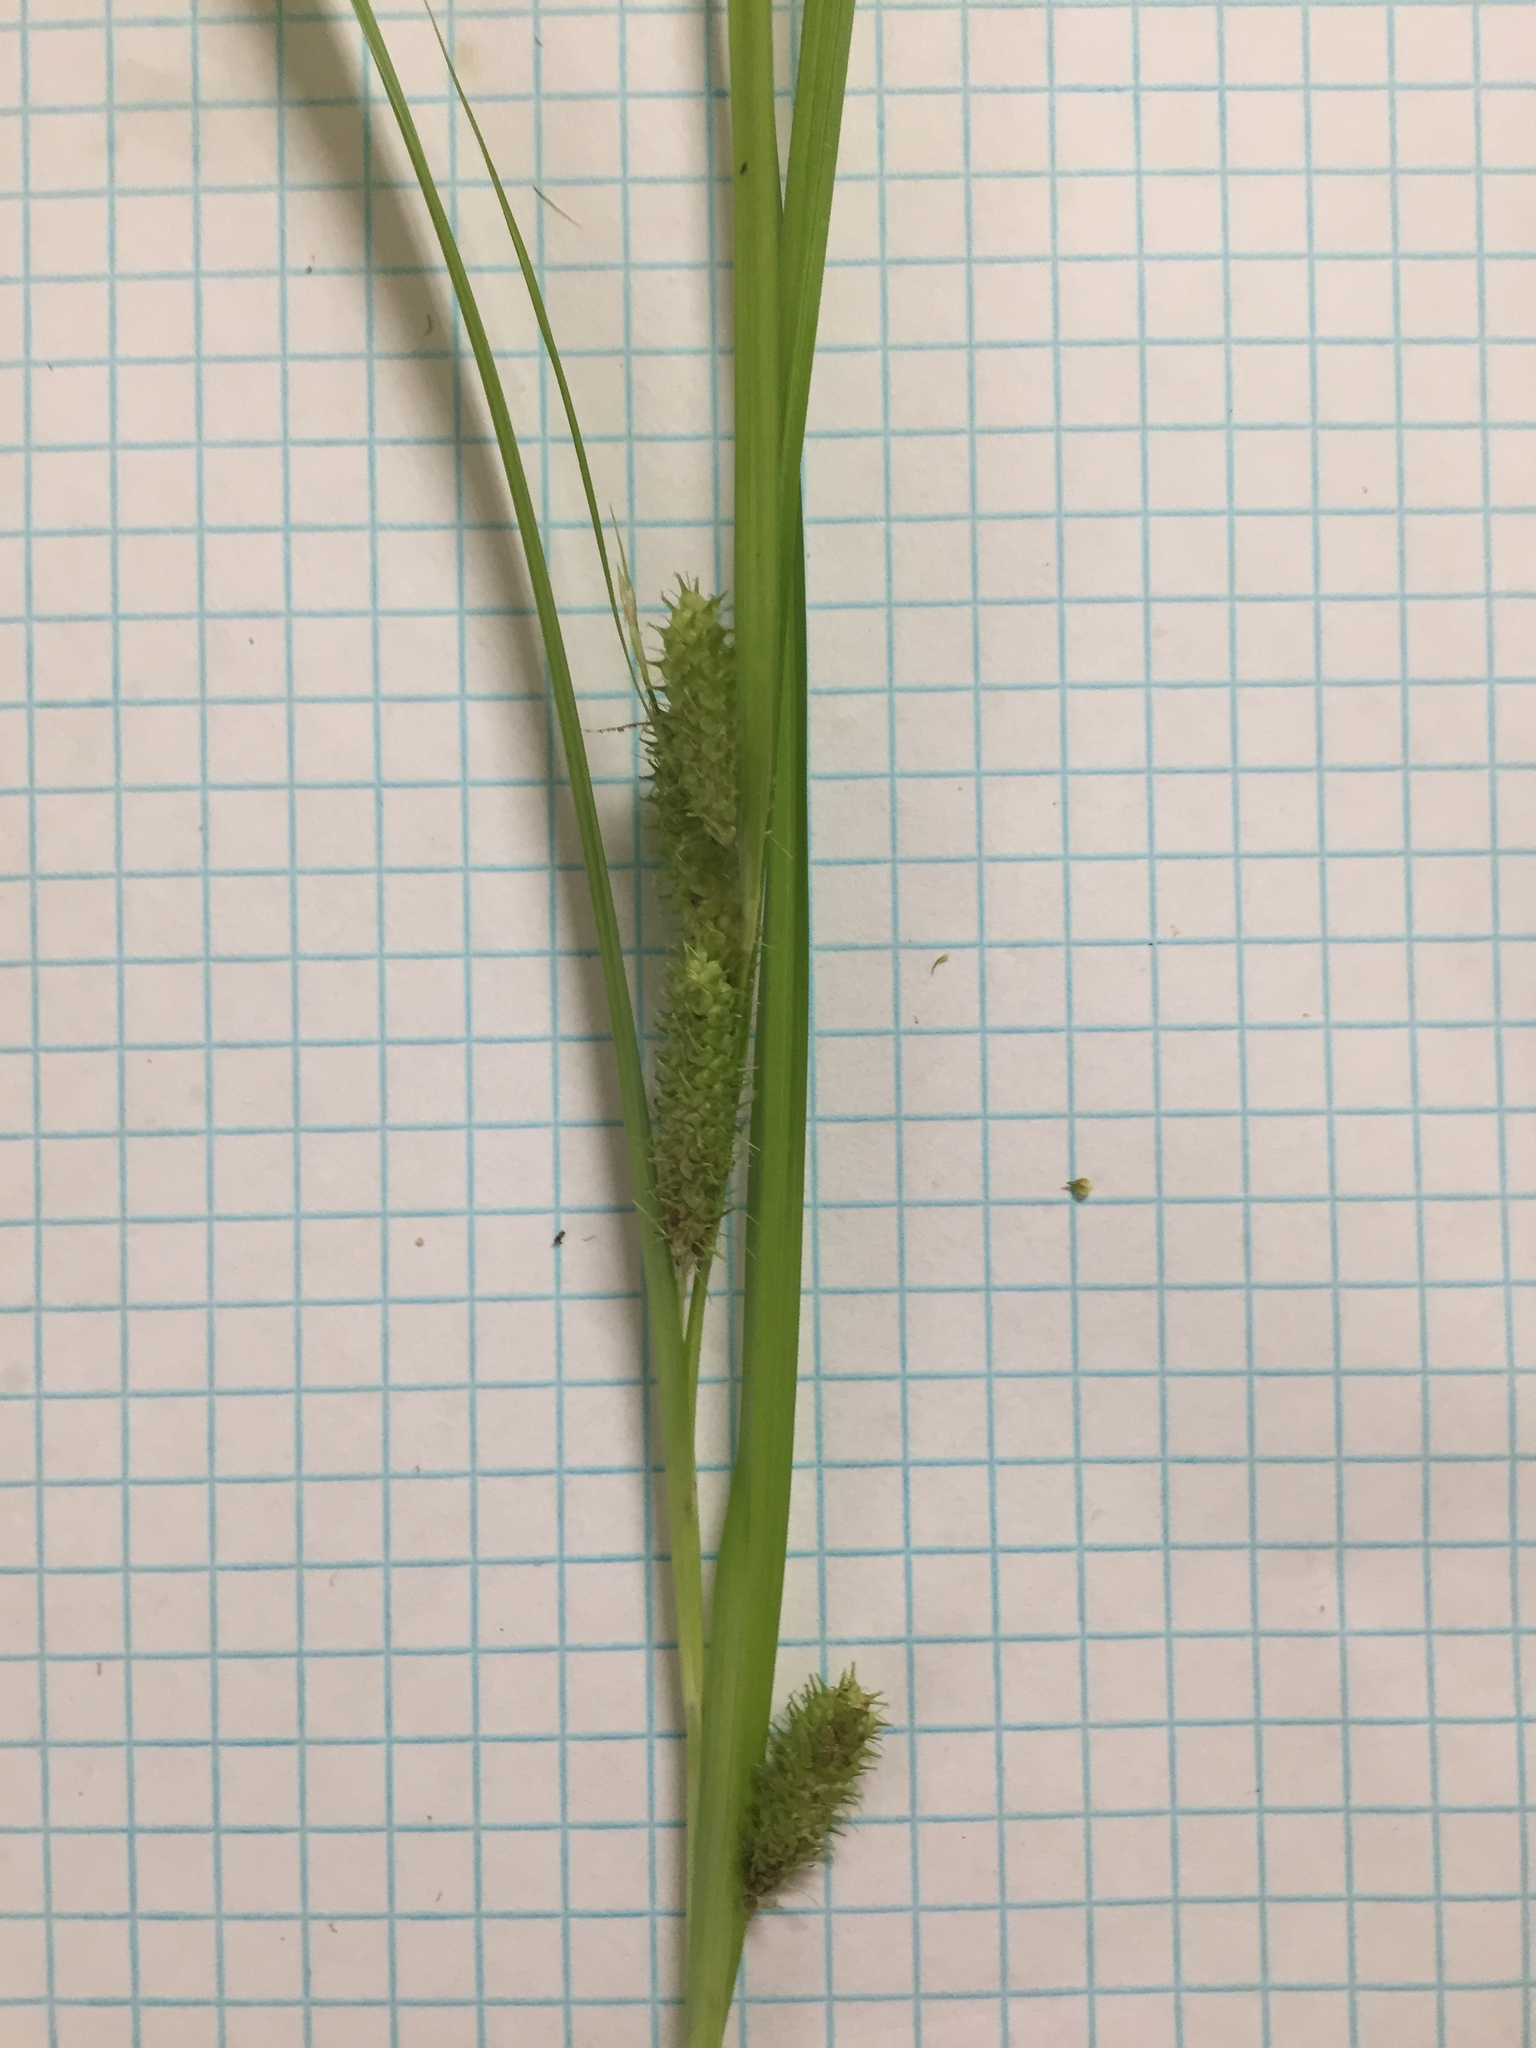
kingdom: Plantae
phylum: Tracheophyta
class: Liliopsida
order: Poales
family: Cyperaceae
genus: Carex
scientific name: Carex aureolensis
